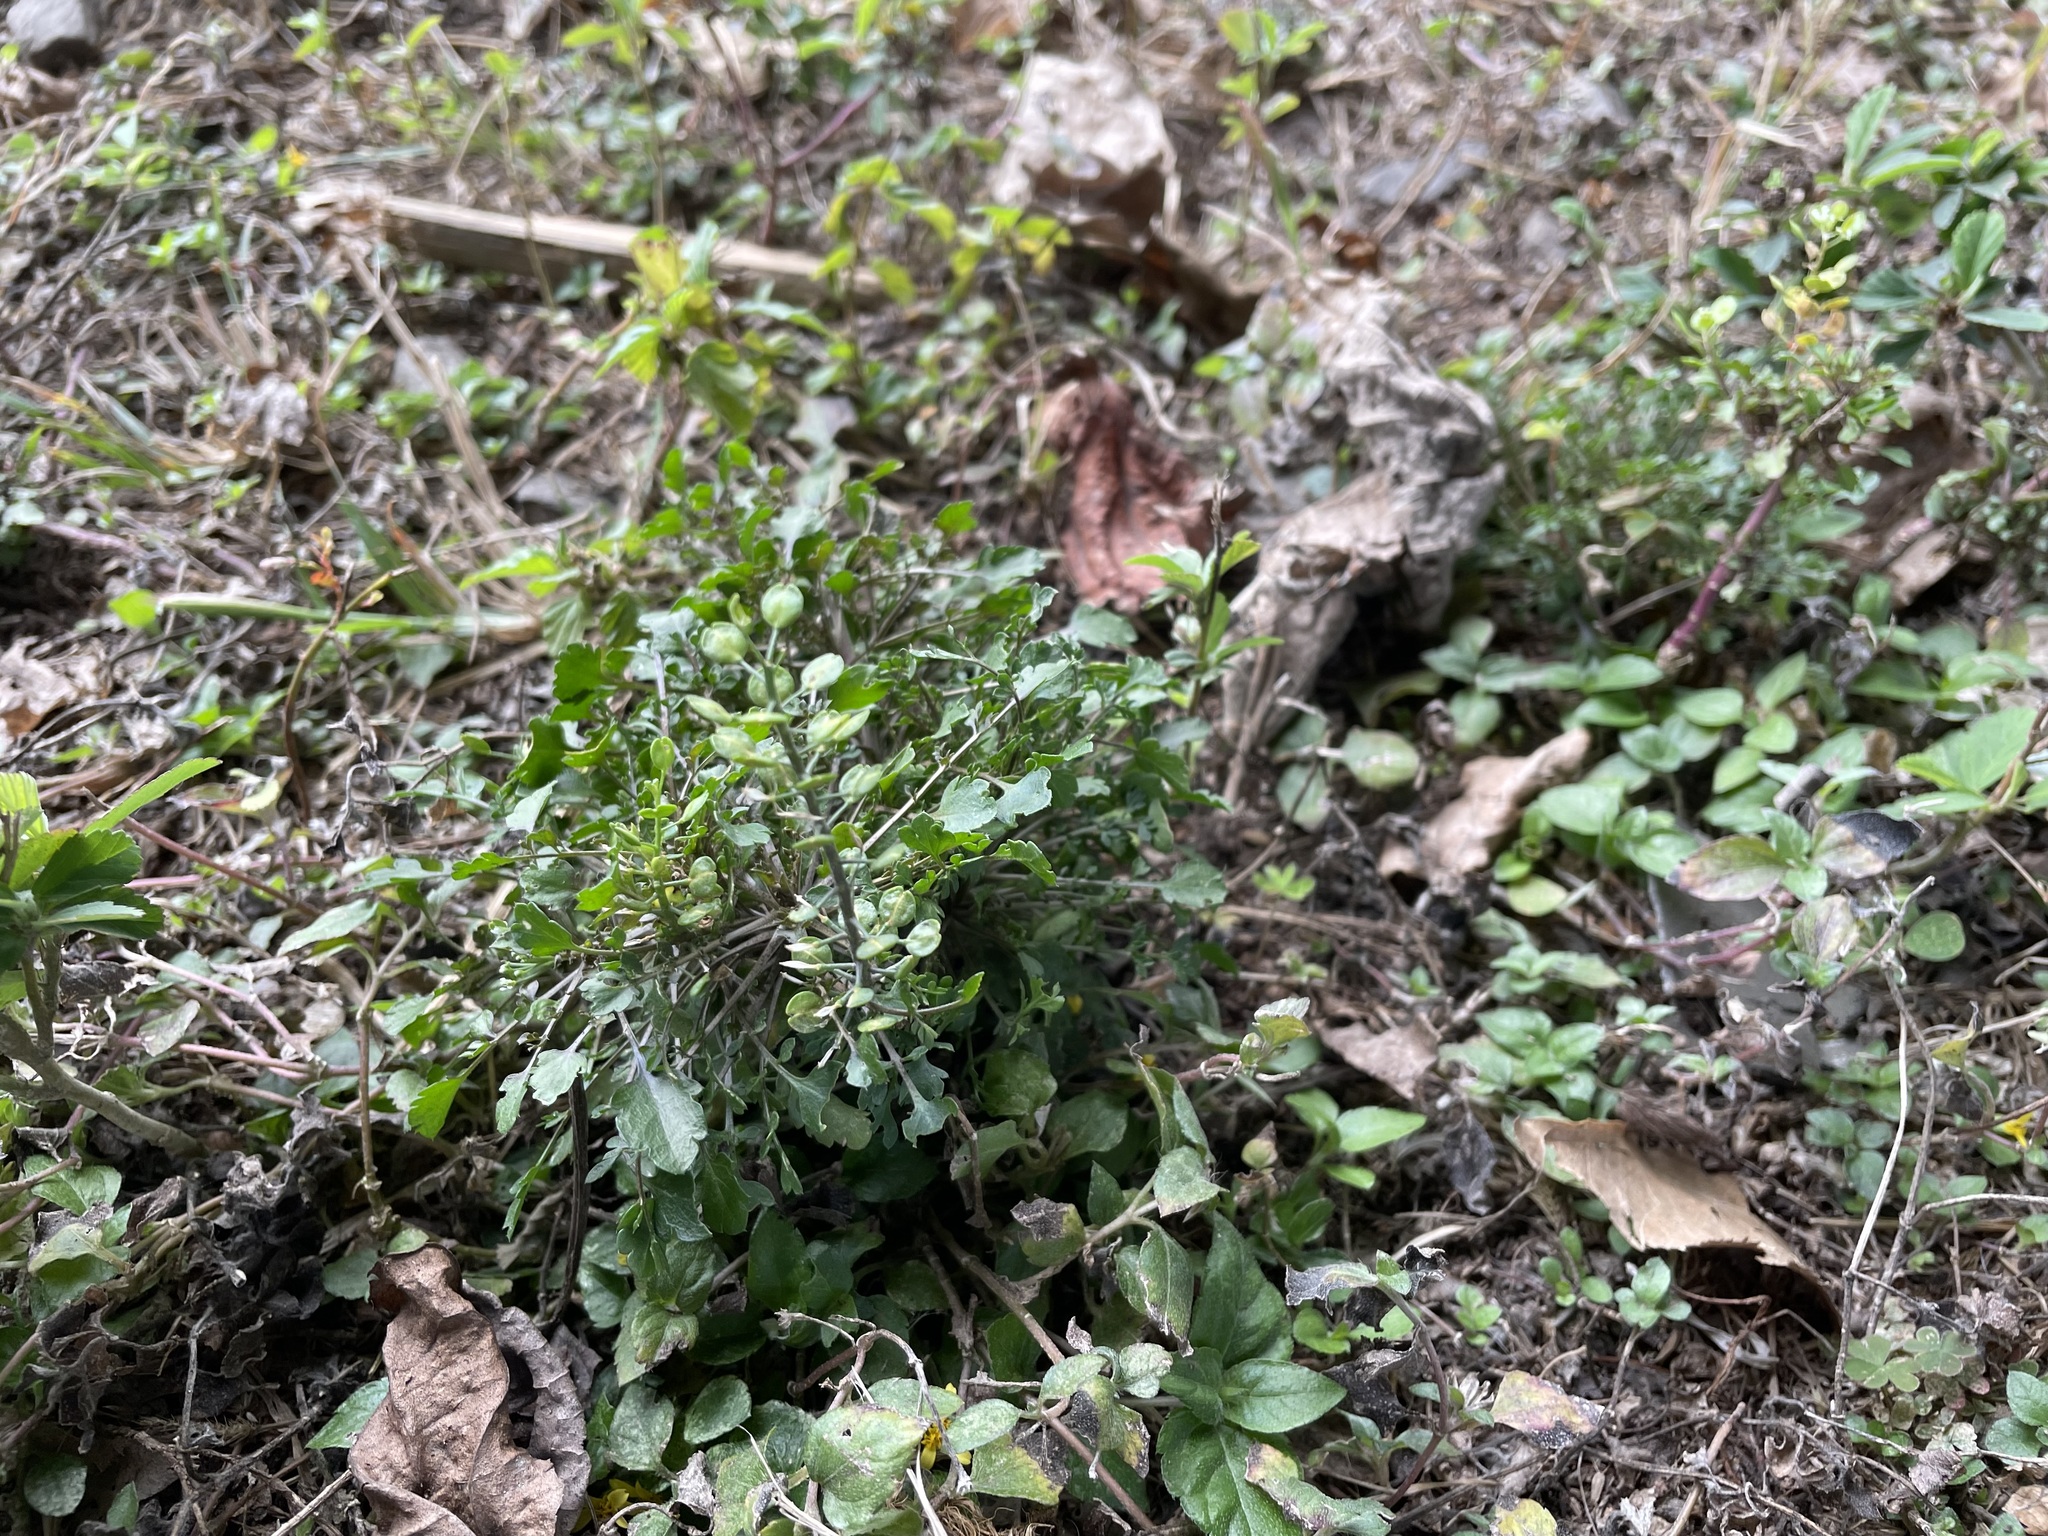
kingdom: Plantae
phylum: Tracheophyta
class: Magnoliopsida
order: Brassicales
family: Brassicaceae
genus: Lepidium
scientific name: Lepidium virginicum
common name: Least pepperwort
